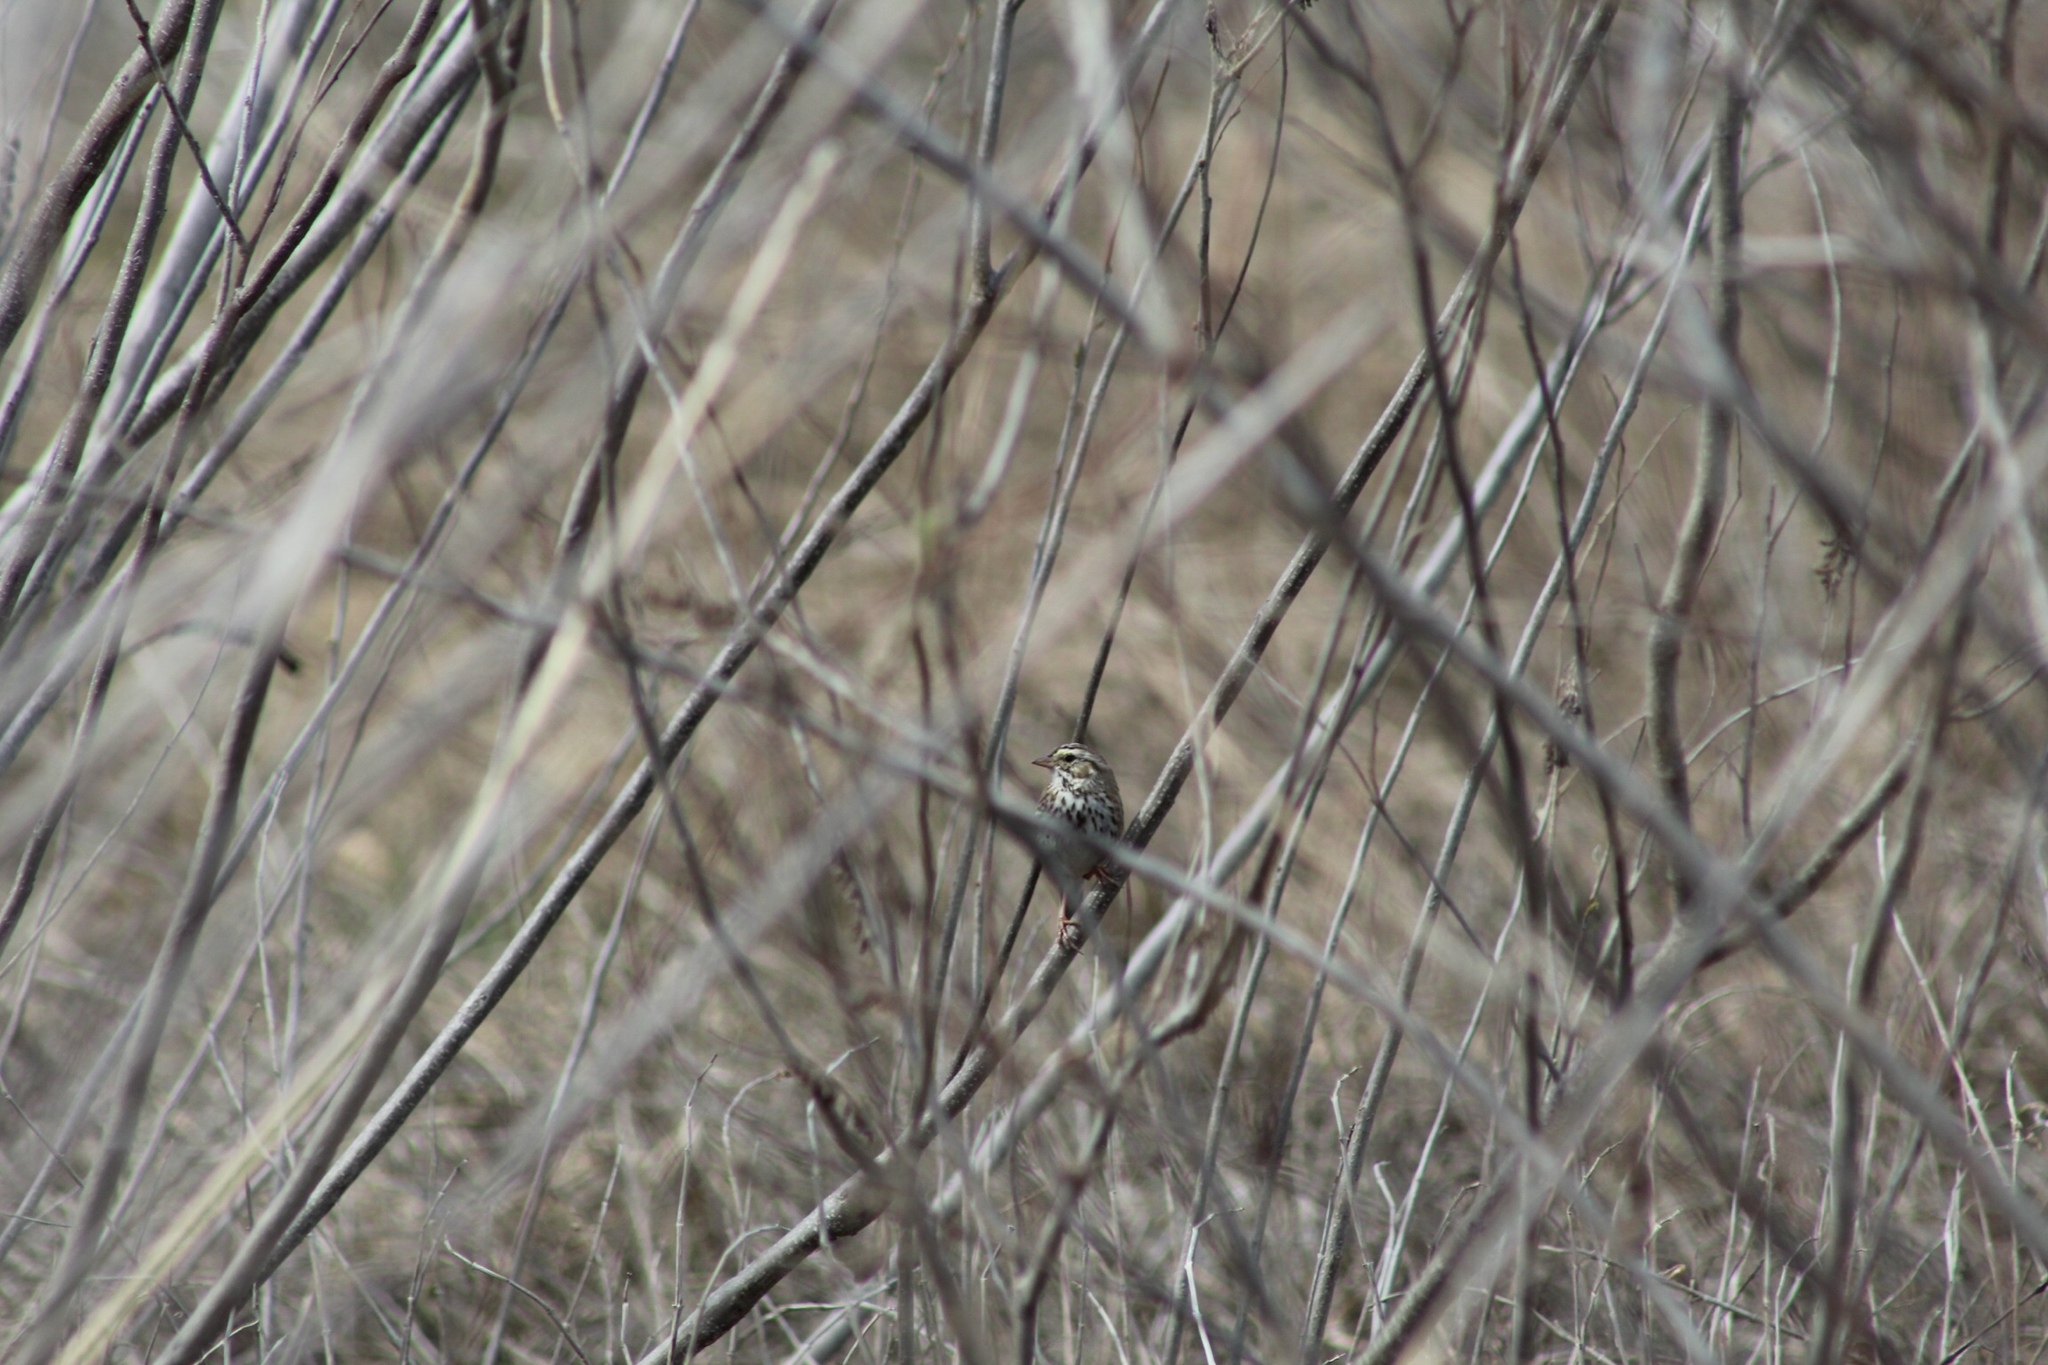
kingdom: Animalia
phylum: Chordata
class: Aves
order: Passeriformes
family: Passerellidae
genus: Passerculus
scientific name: Passerculus sandwichensis
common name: Savannah sparrow
